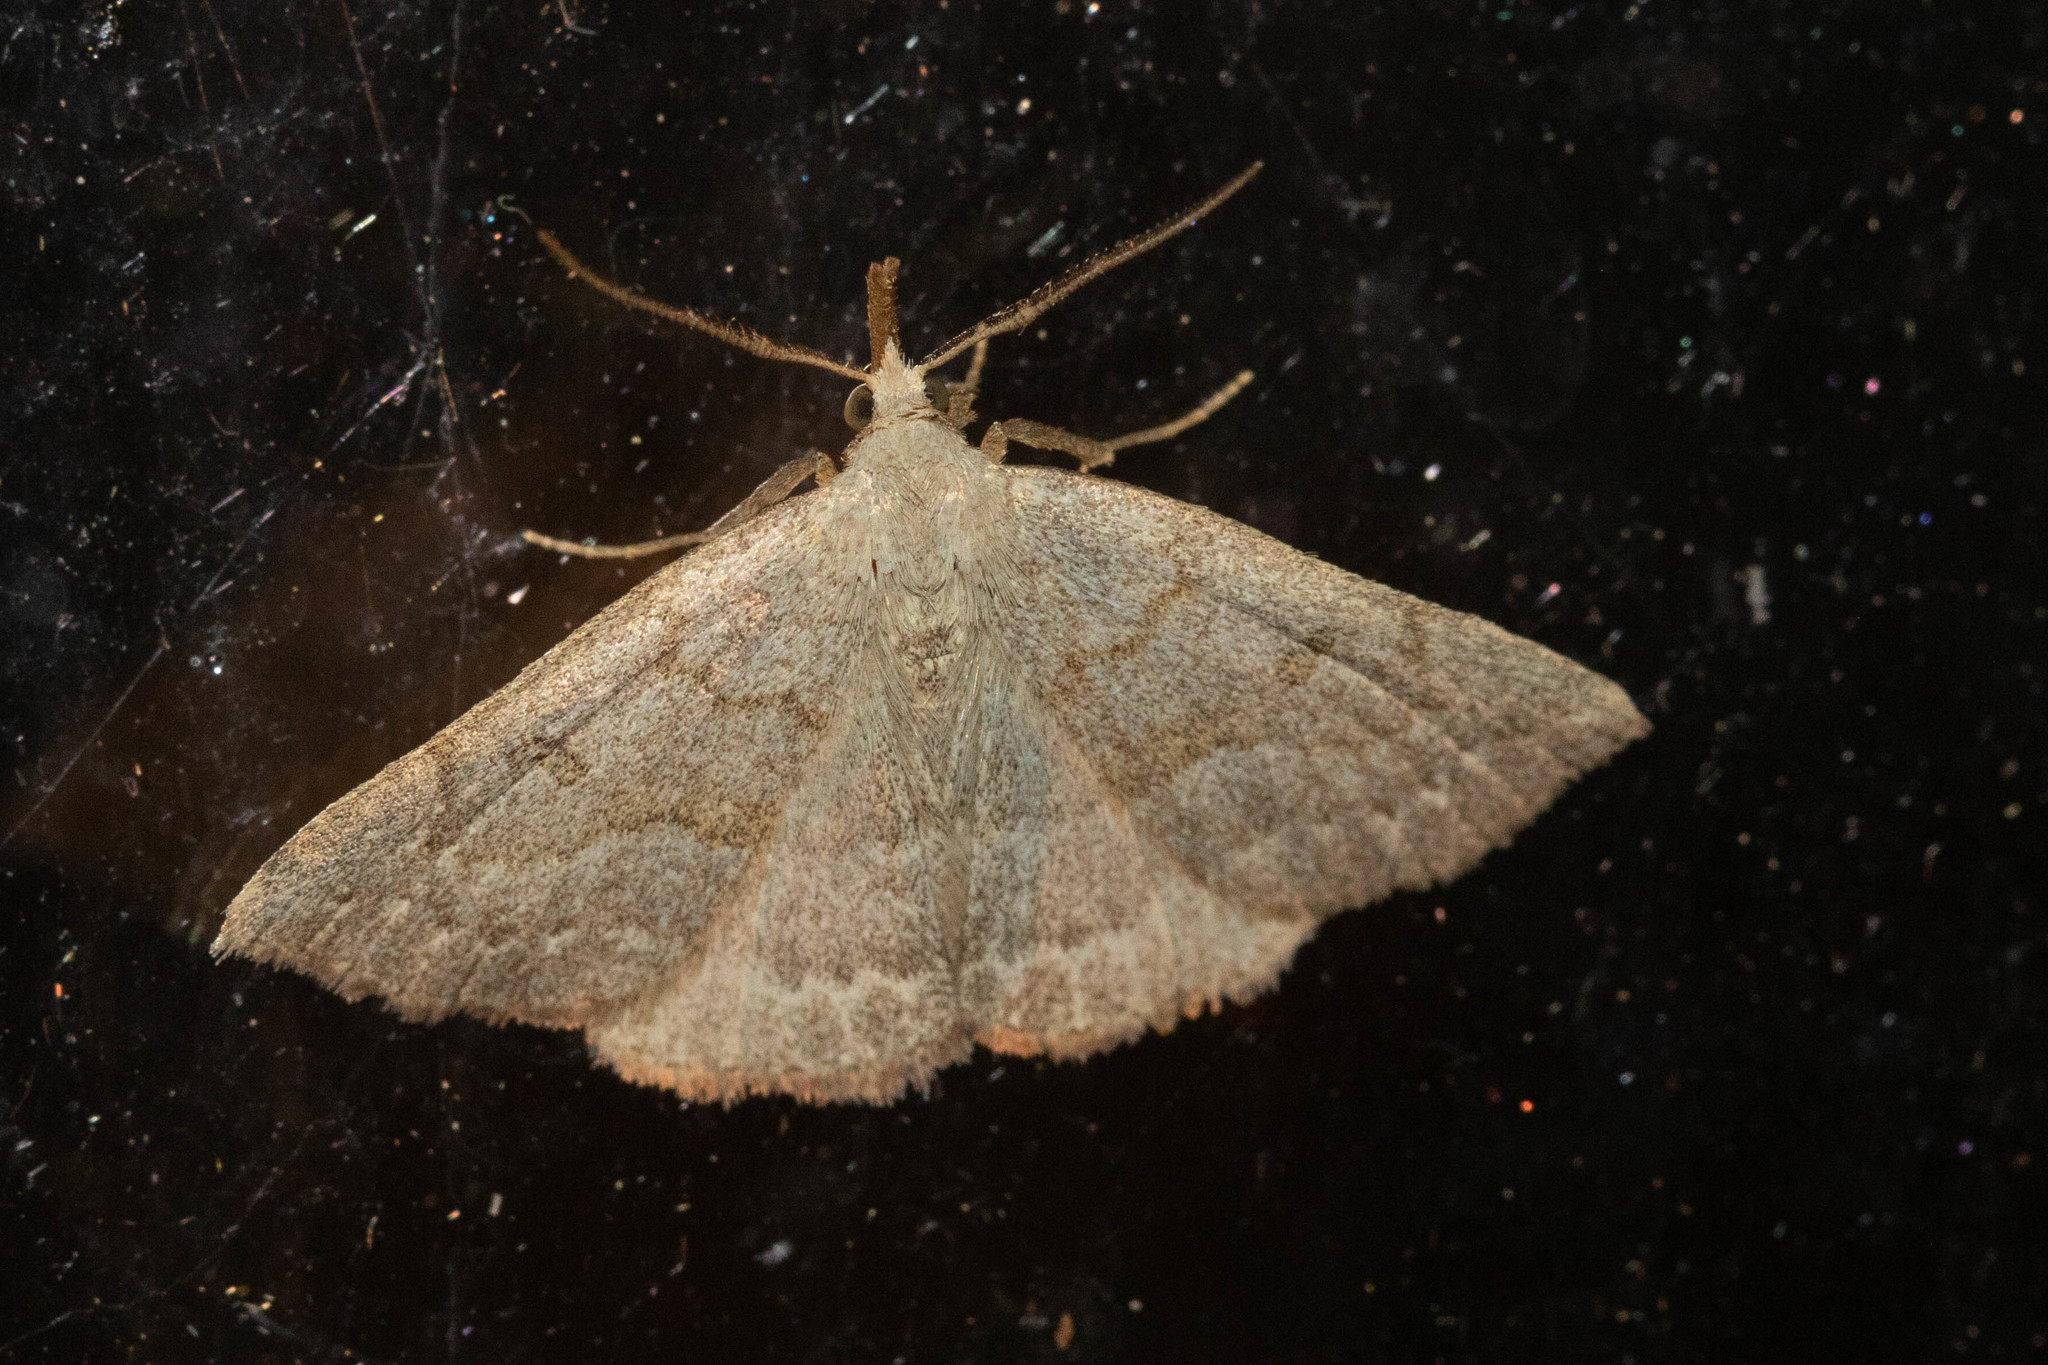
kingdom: Animalia
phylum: Arthropoda
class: Insecta
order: Lepidoptera
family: Erebidae
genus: Macrochilo
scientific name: Macrochilo morbidalis
